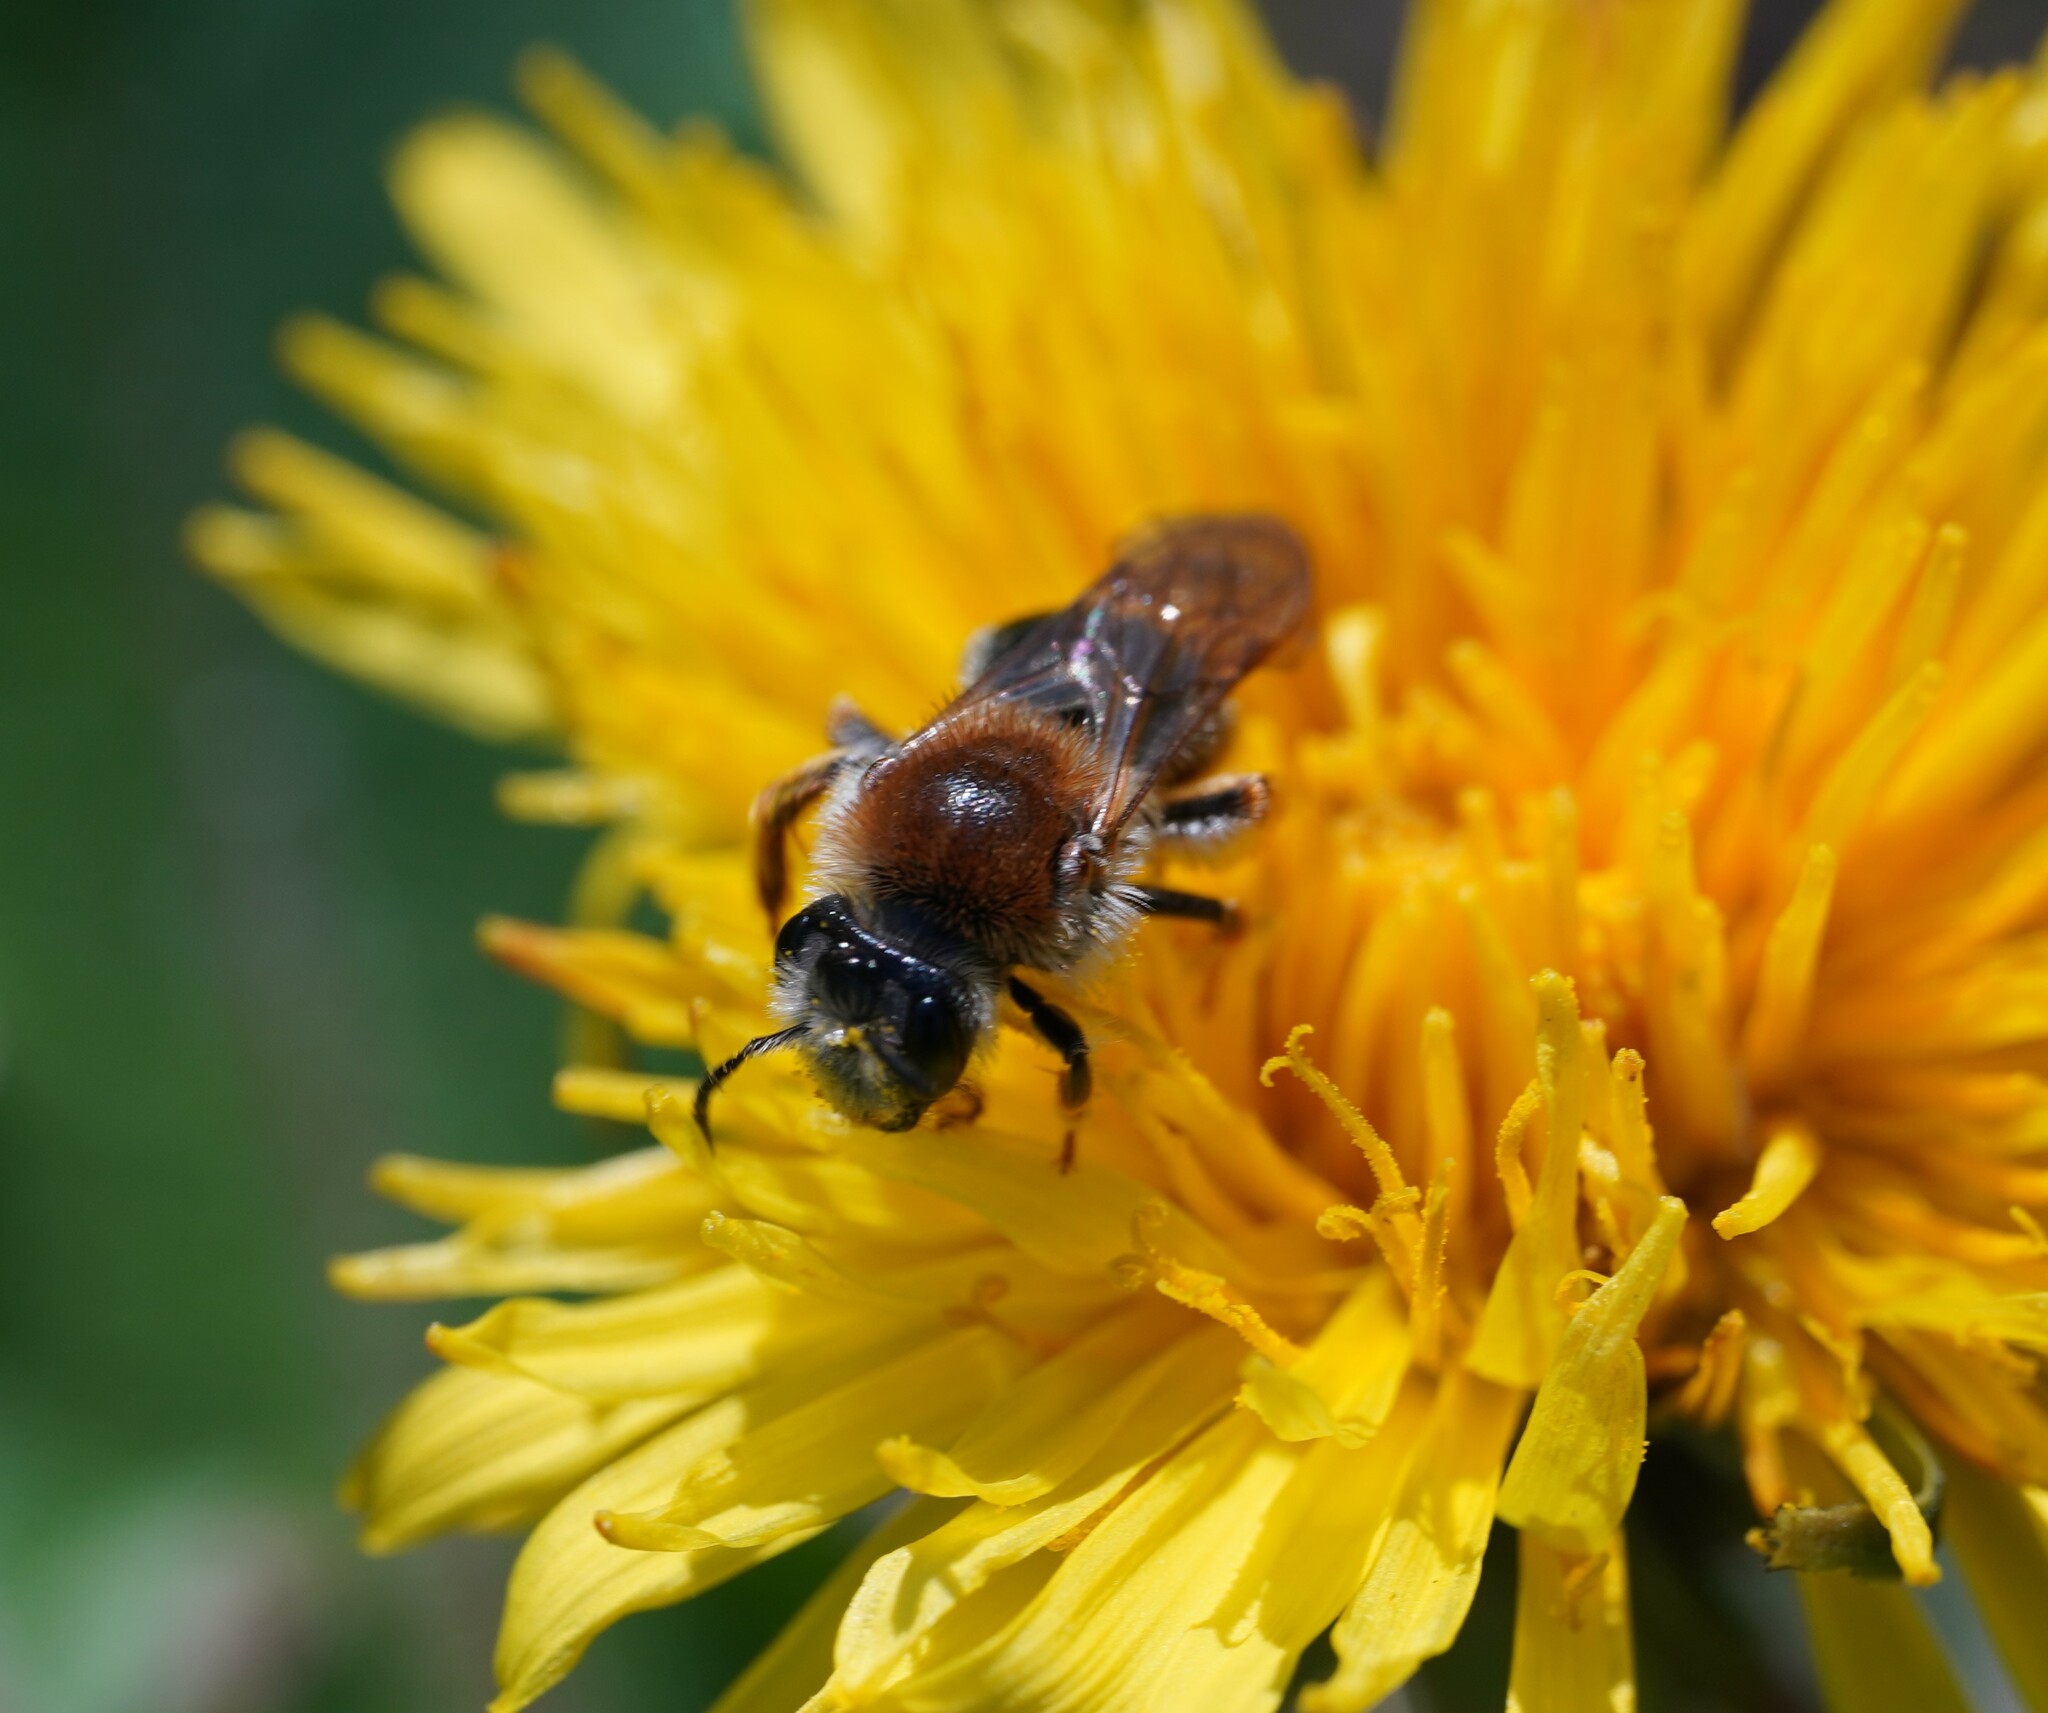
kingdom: Animalia
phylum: Arthropoda
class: Insecta
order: Hymenoptera
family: Andrenidae
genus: Andrena
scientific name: Andrena haemorrhoa
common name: Early mining bee
